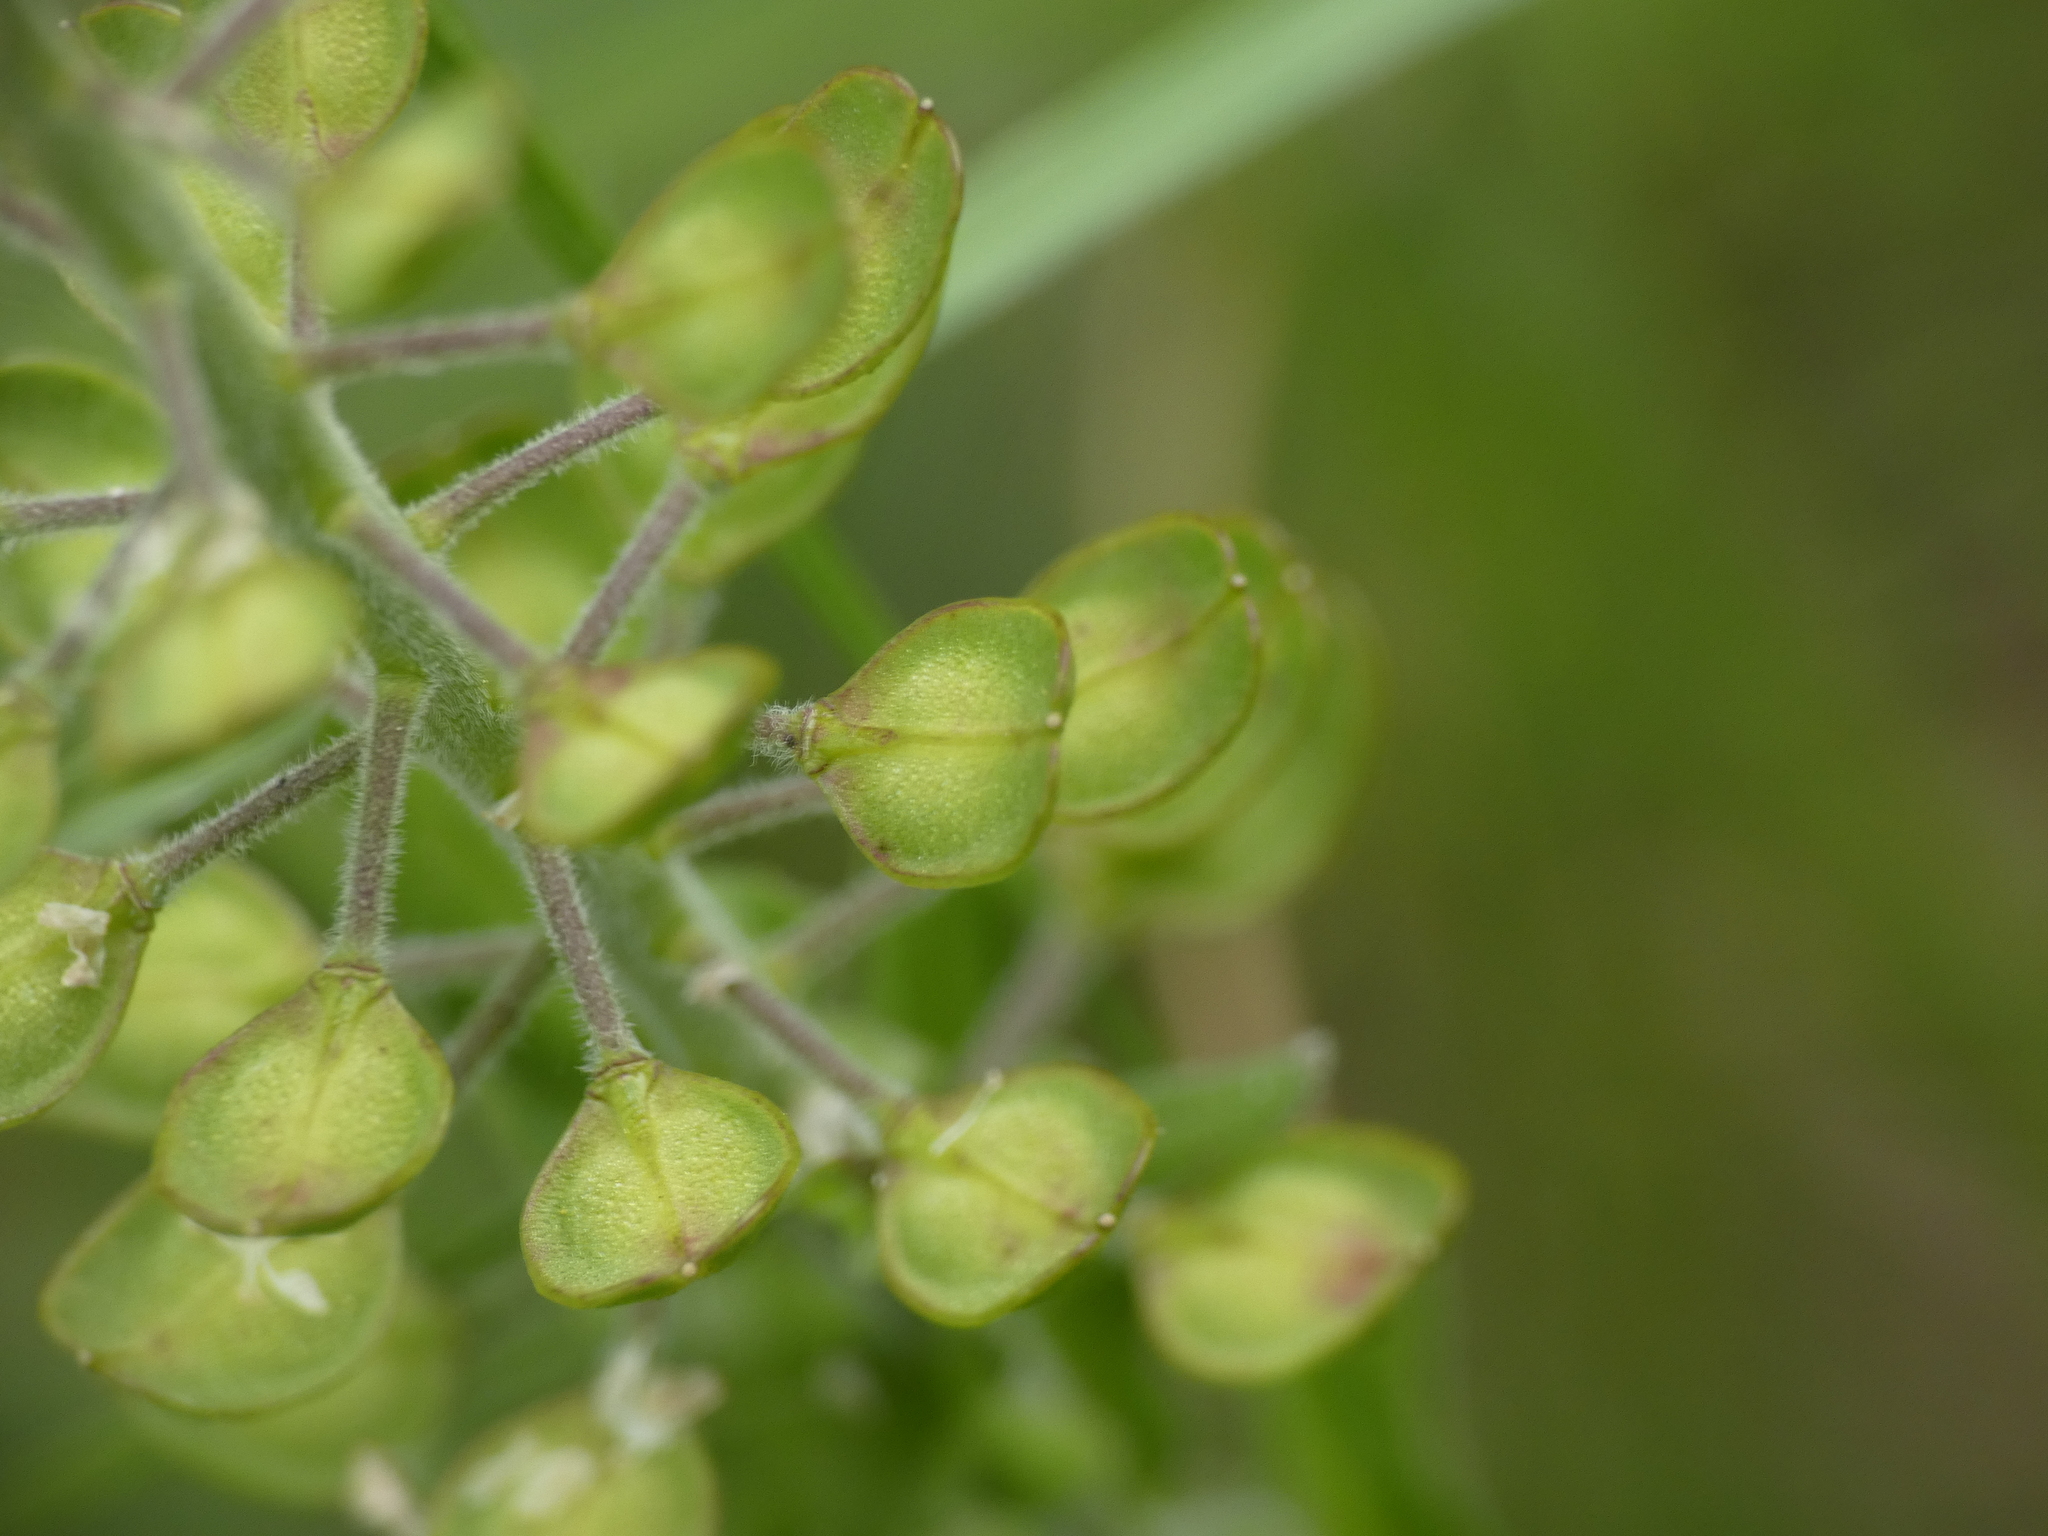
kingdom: Plantae
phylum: Tracheophyta
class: Magnoliopsida
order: Brassicales
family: Brassicaceae
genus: Lepidium
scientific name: Lepidium campestre
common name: Field pepperwort
